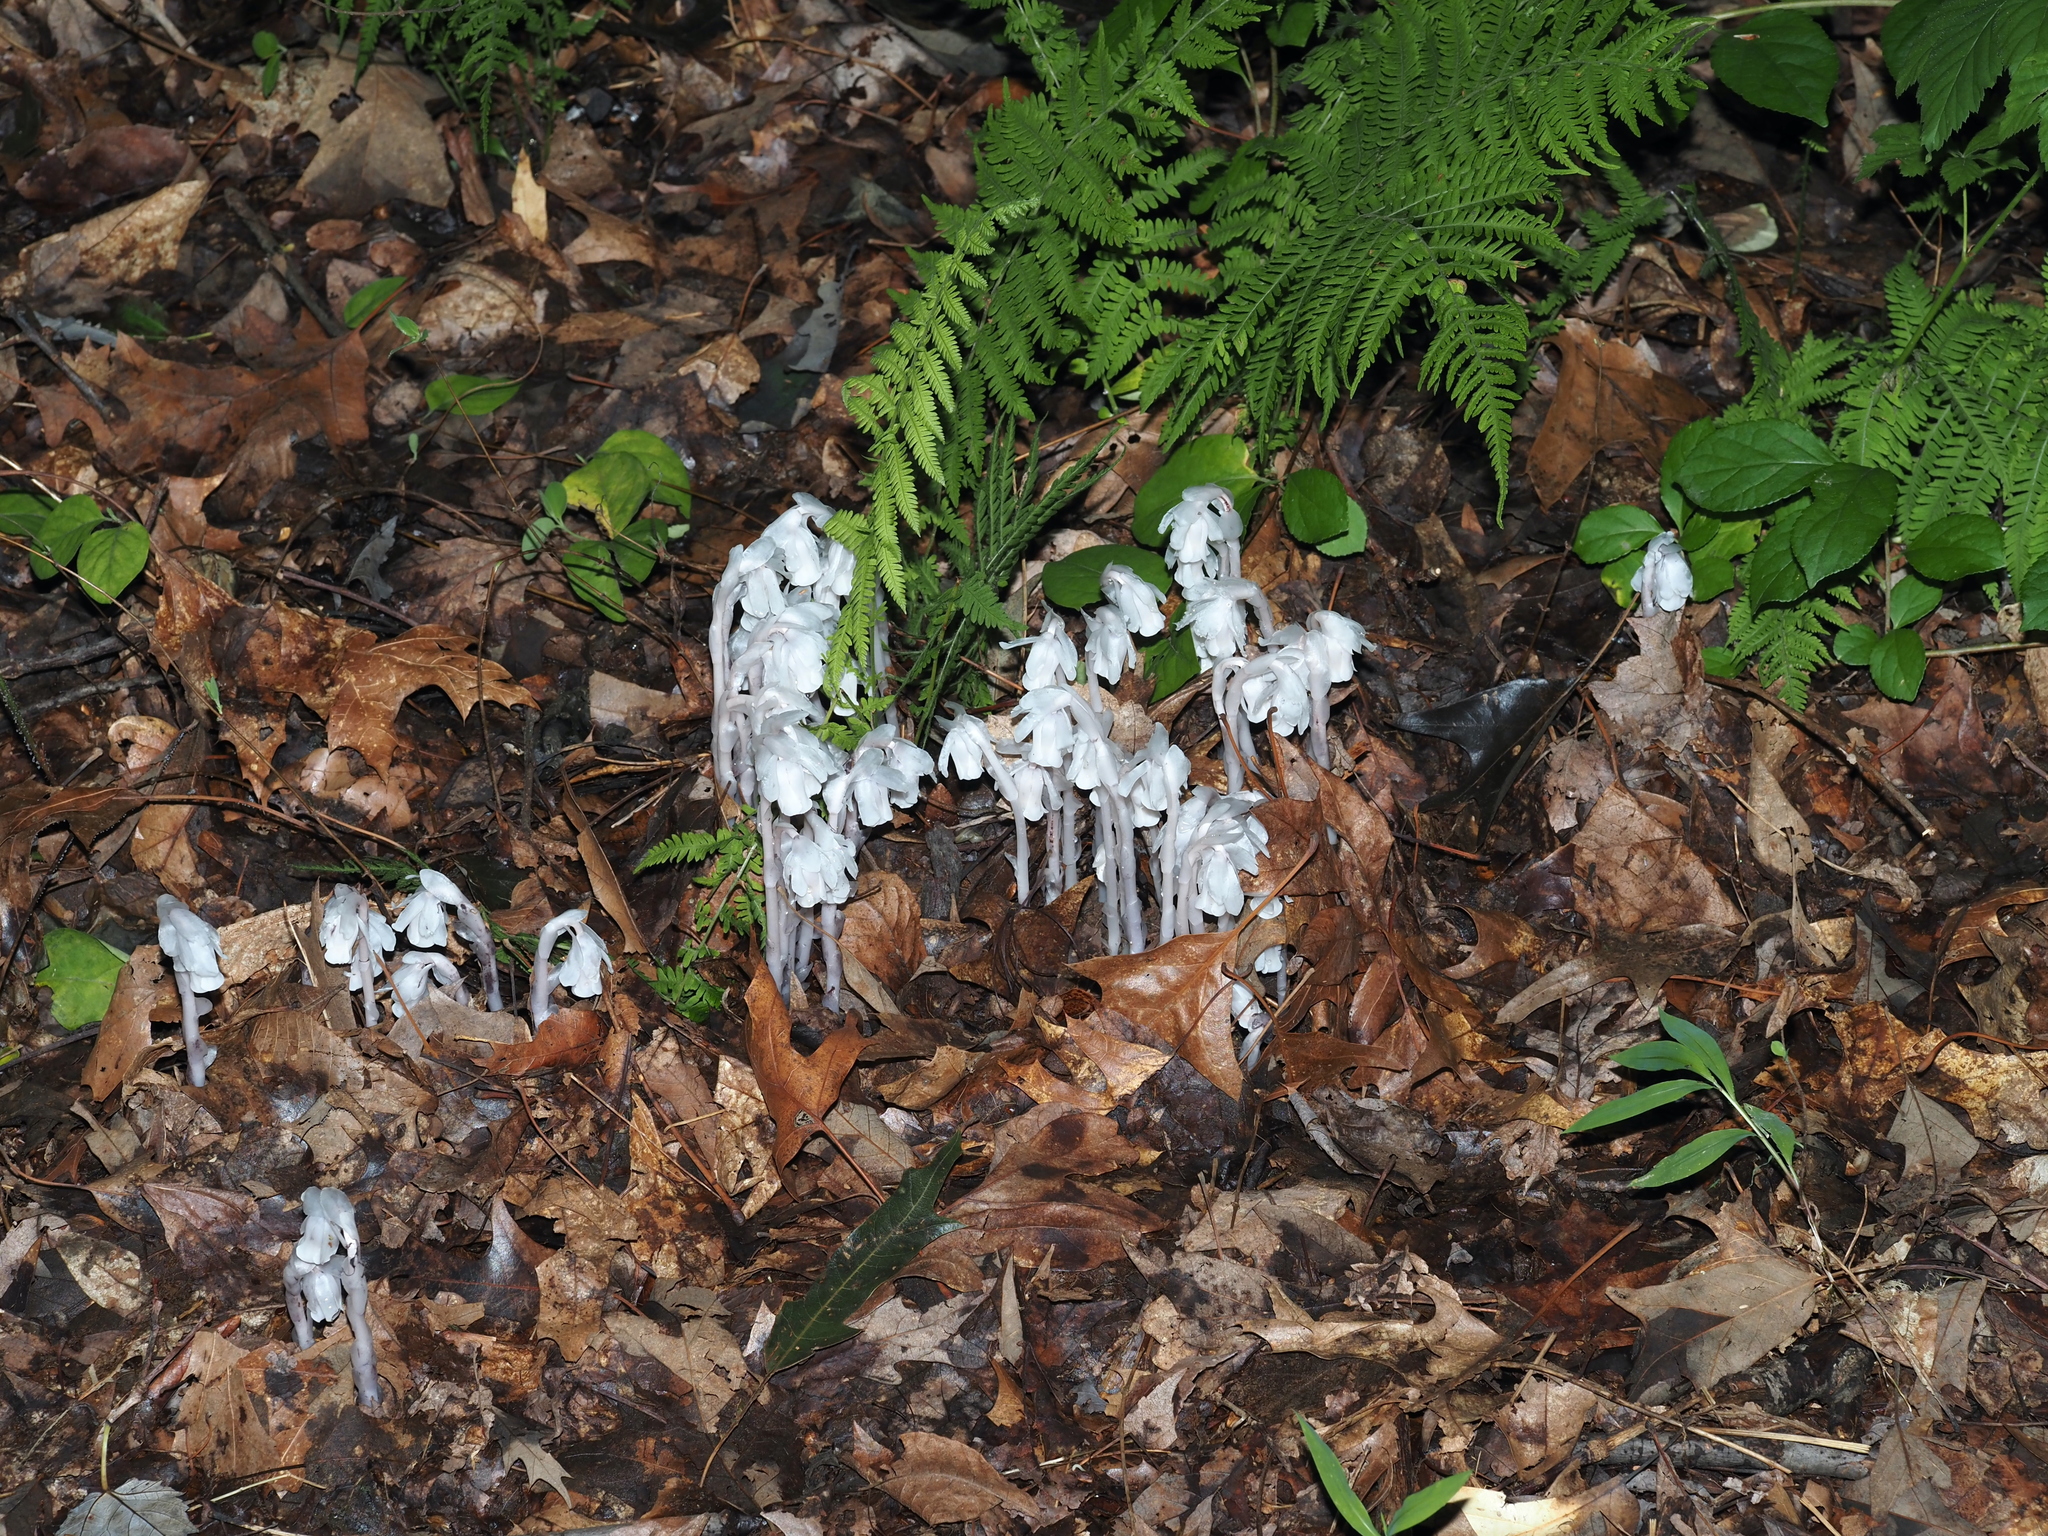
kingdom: Plantae
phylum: Tracheophyta
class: Magnoliopsida
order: Ericales
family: Ericaceae
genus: Monotropa
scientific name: Monotropa uniflora
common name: Convulsion root
